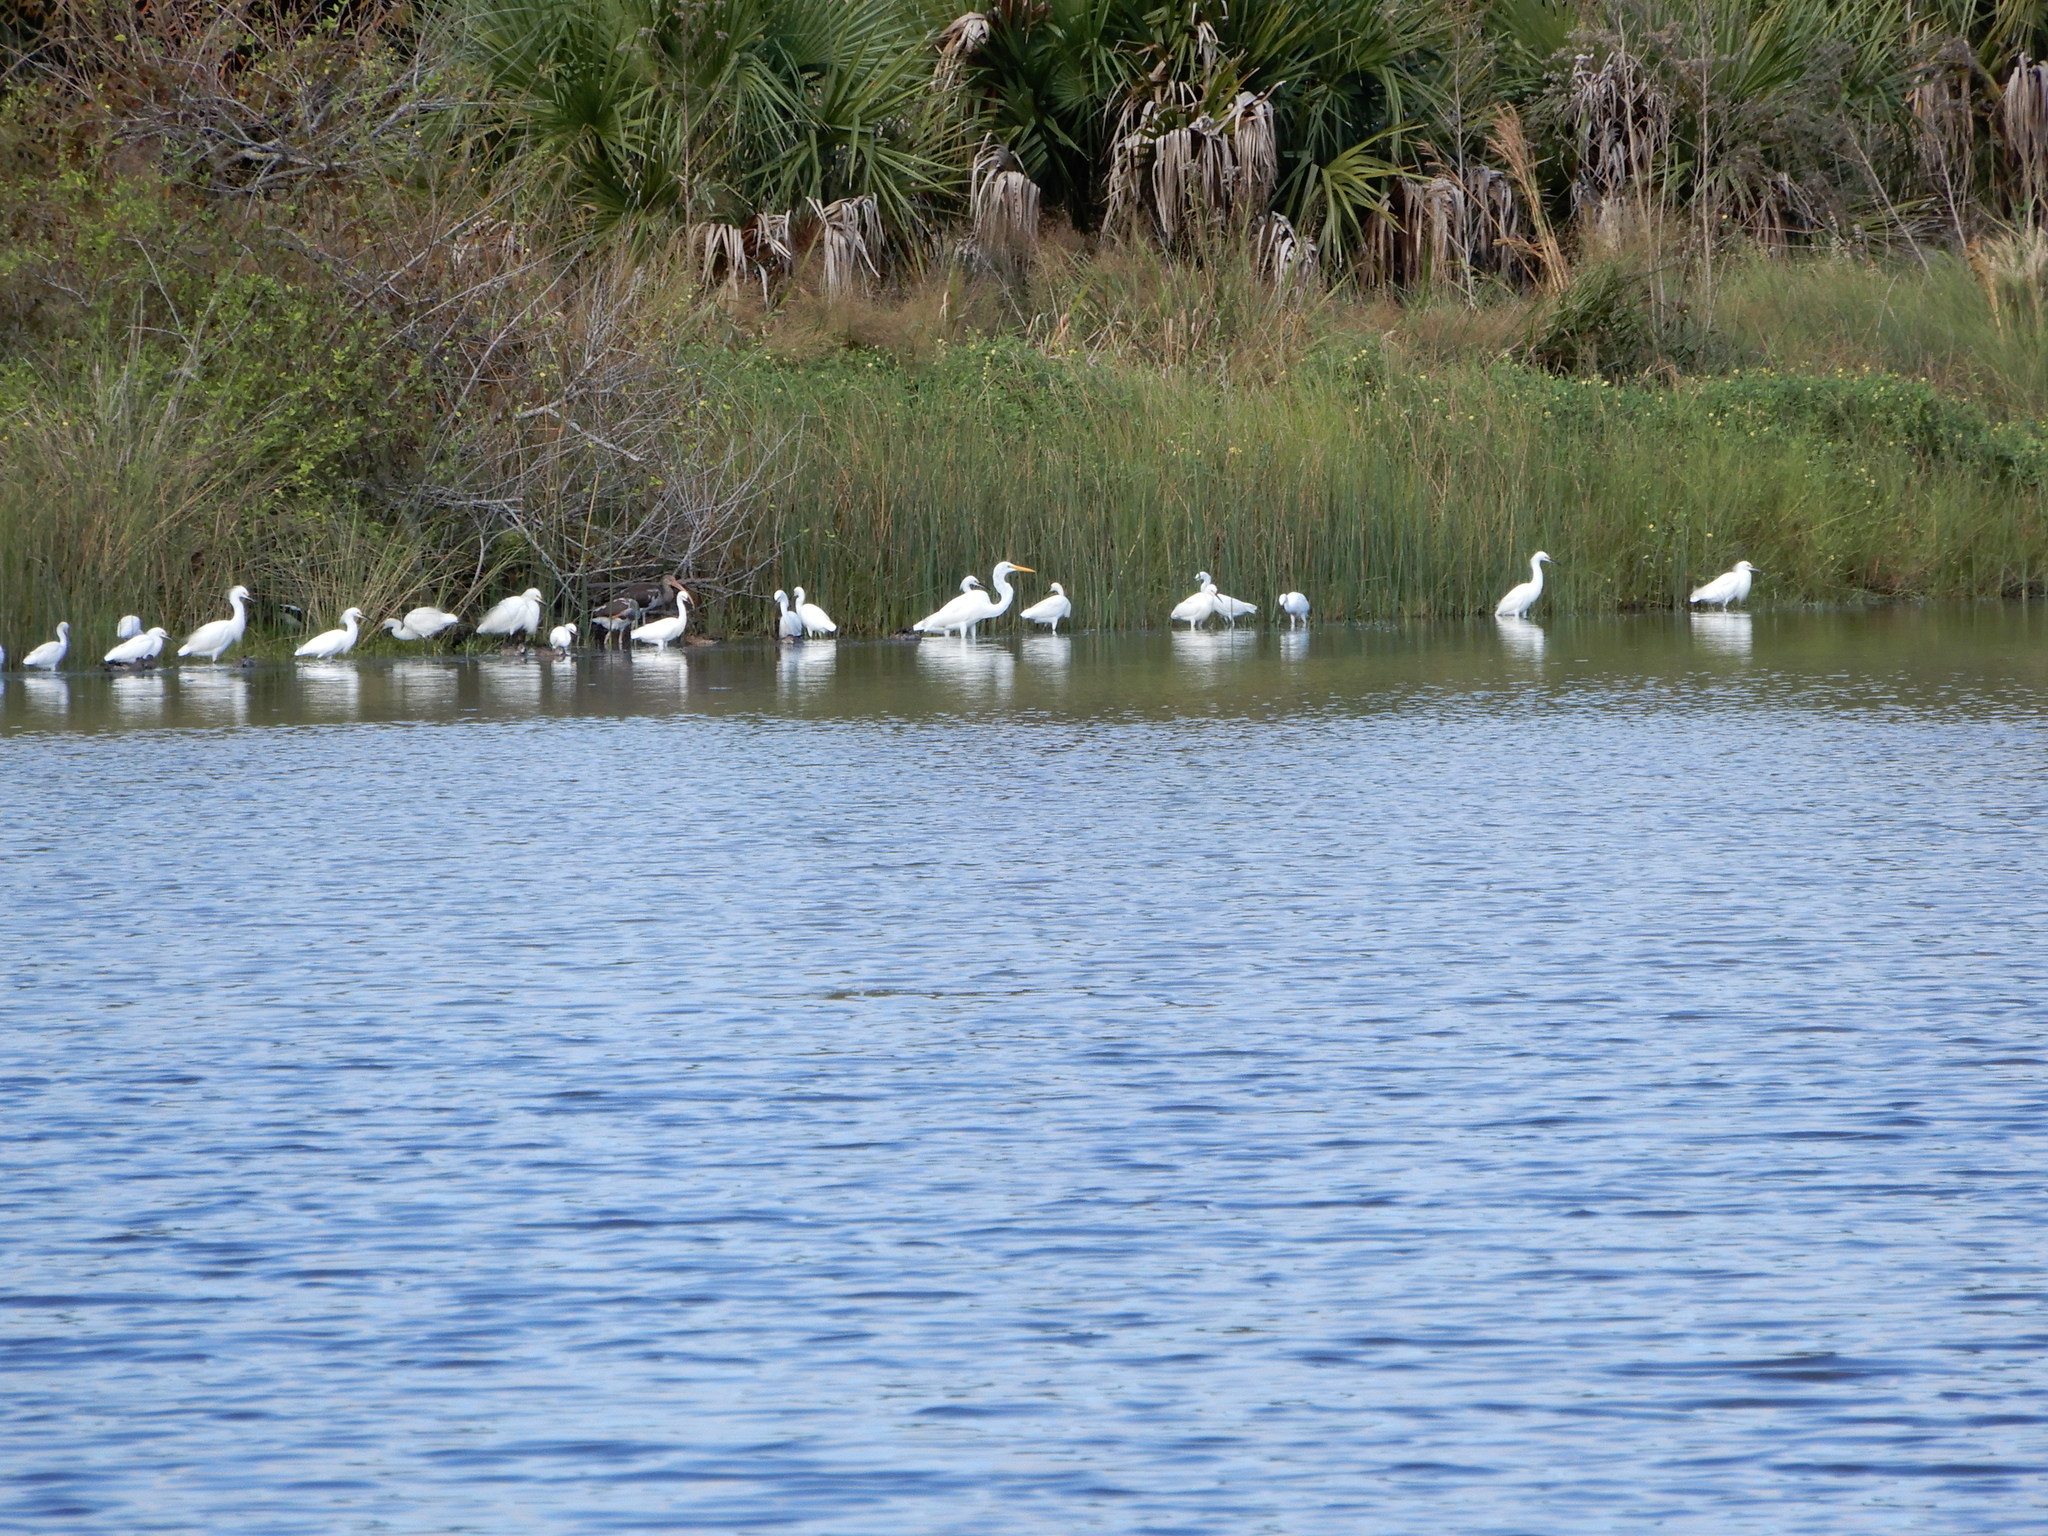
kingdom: Animalia
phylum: Chordata
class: Aves
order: Pelecaniformes
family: Ardeidae
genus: Egretta
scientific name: Egretta thula
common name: Snowy egret
